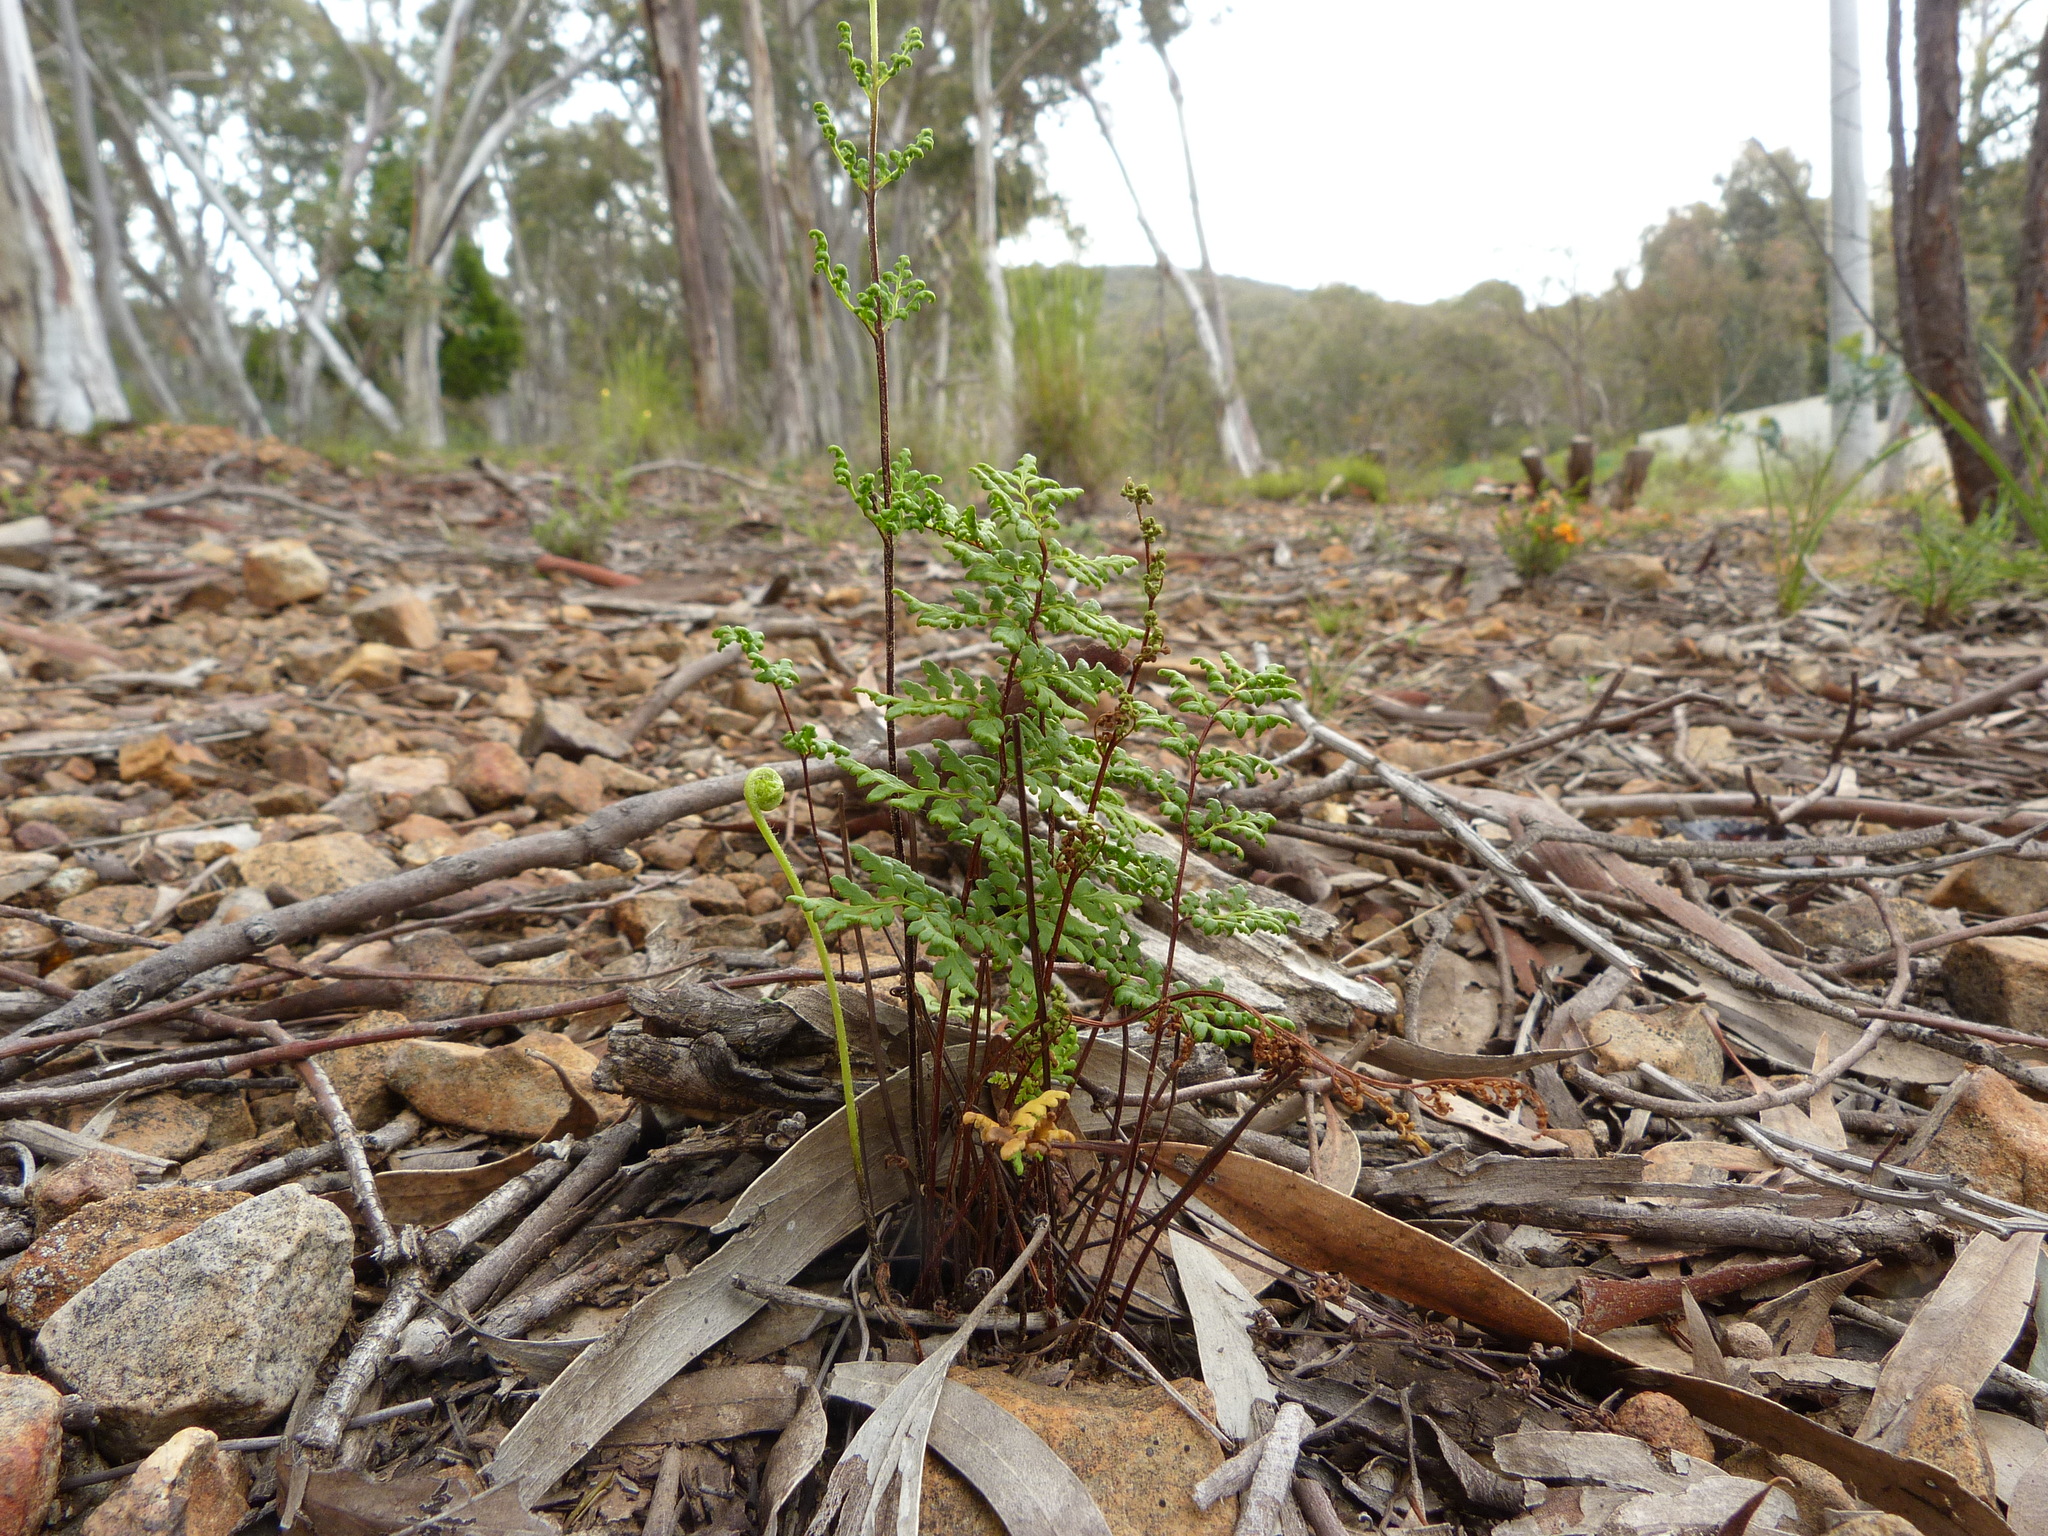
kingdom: Plantae
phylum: Tracheophyta
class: Polypodiopsida
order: Polypodiales
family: Pteridaceae
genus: Cheilanthes
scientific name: Cheilanthes sieberi
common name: Mulga fern
